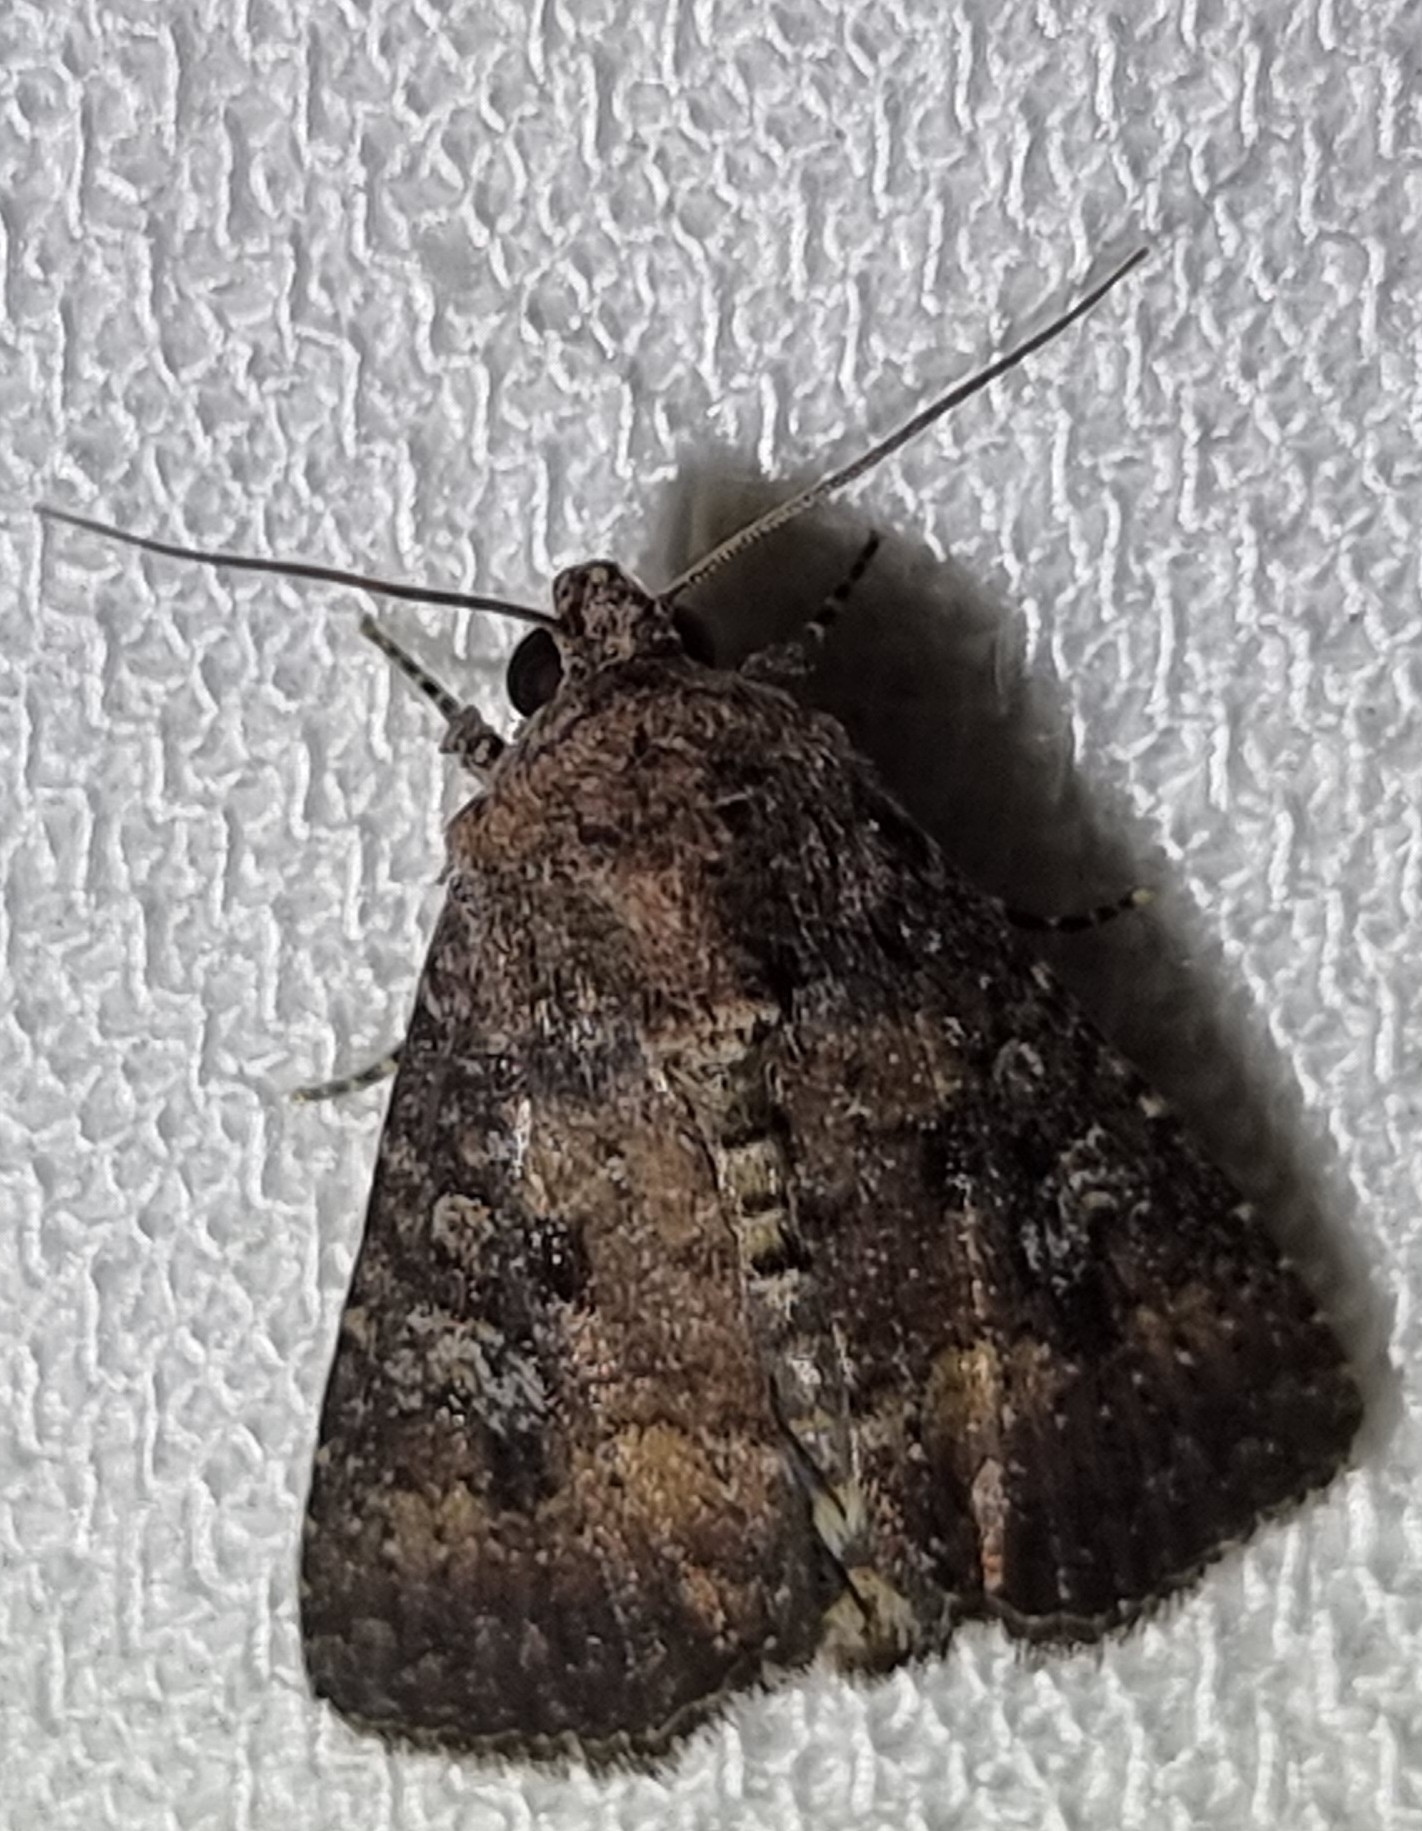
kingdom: Animalia
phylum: Arthropoda
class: Insecta
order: Lepidoptera
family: Noctuidae
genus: Condica
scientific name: Condica illecta
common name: Cutworm
